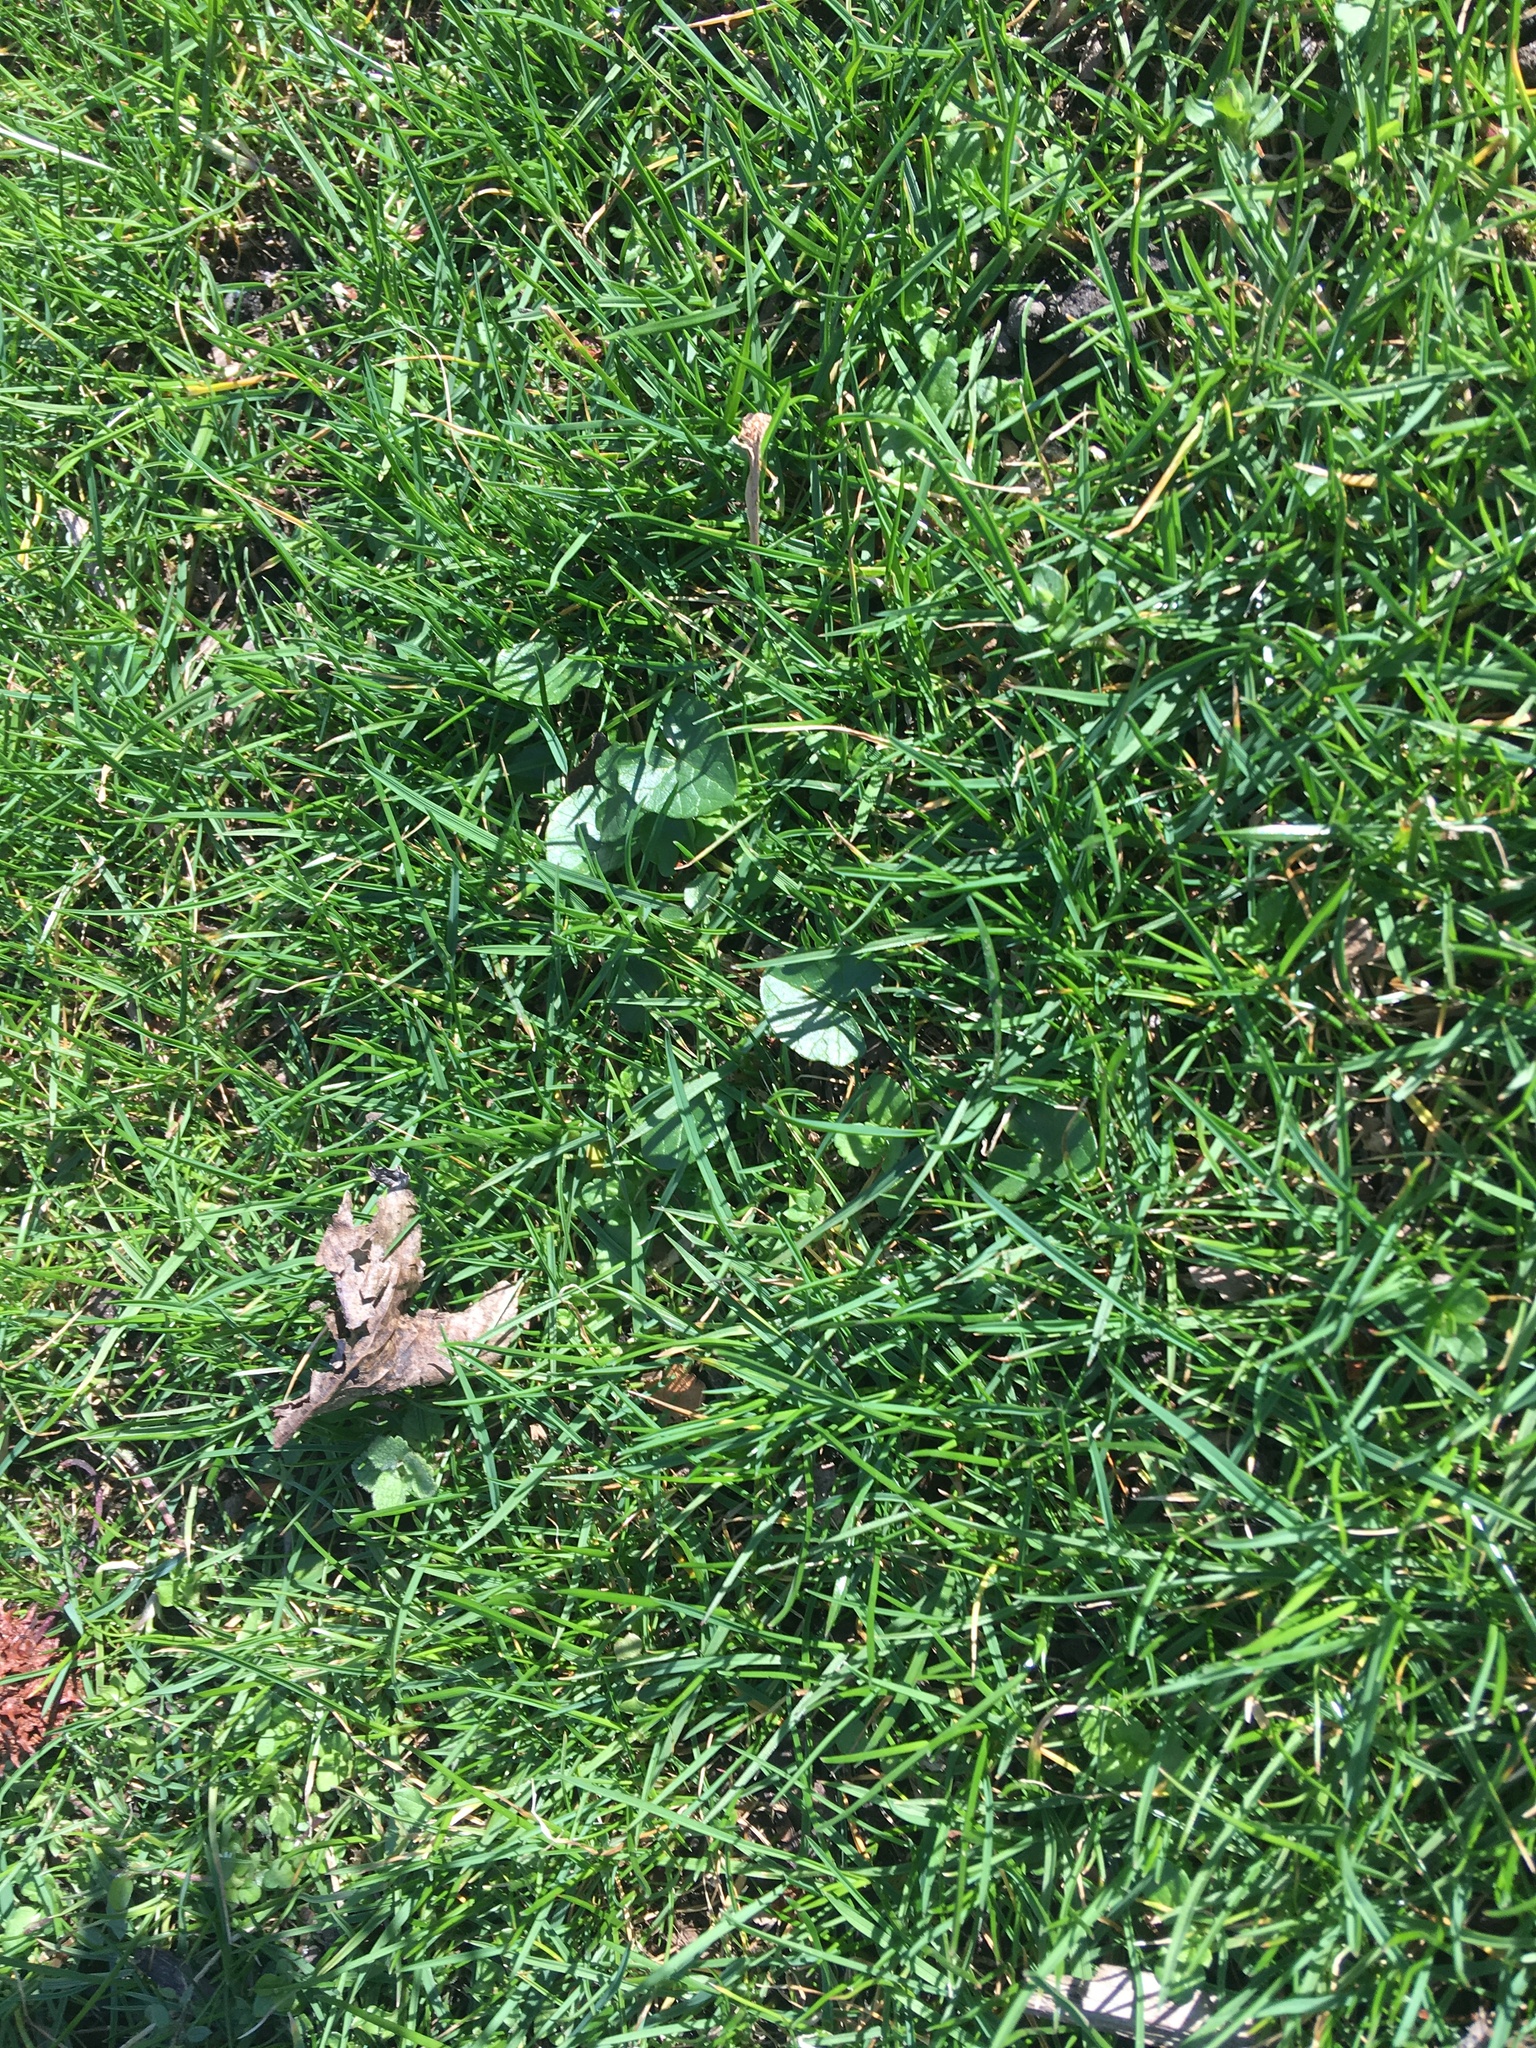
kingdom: Plantae
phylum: Tracheophyta
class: Magnoliopsida
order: Ranunculales
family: Ranunculaceae
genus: Ficaria
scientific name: Ficaria verna
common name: Lesser celandine
